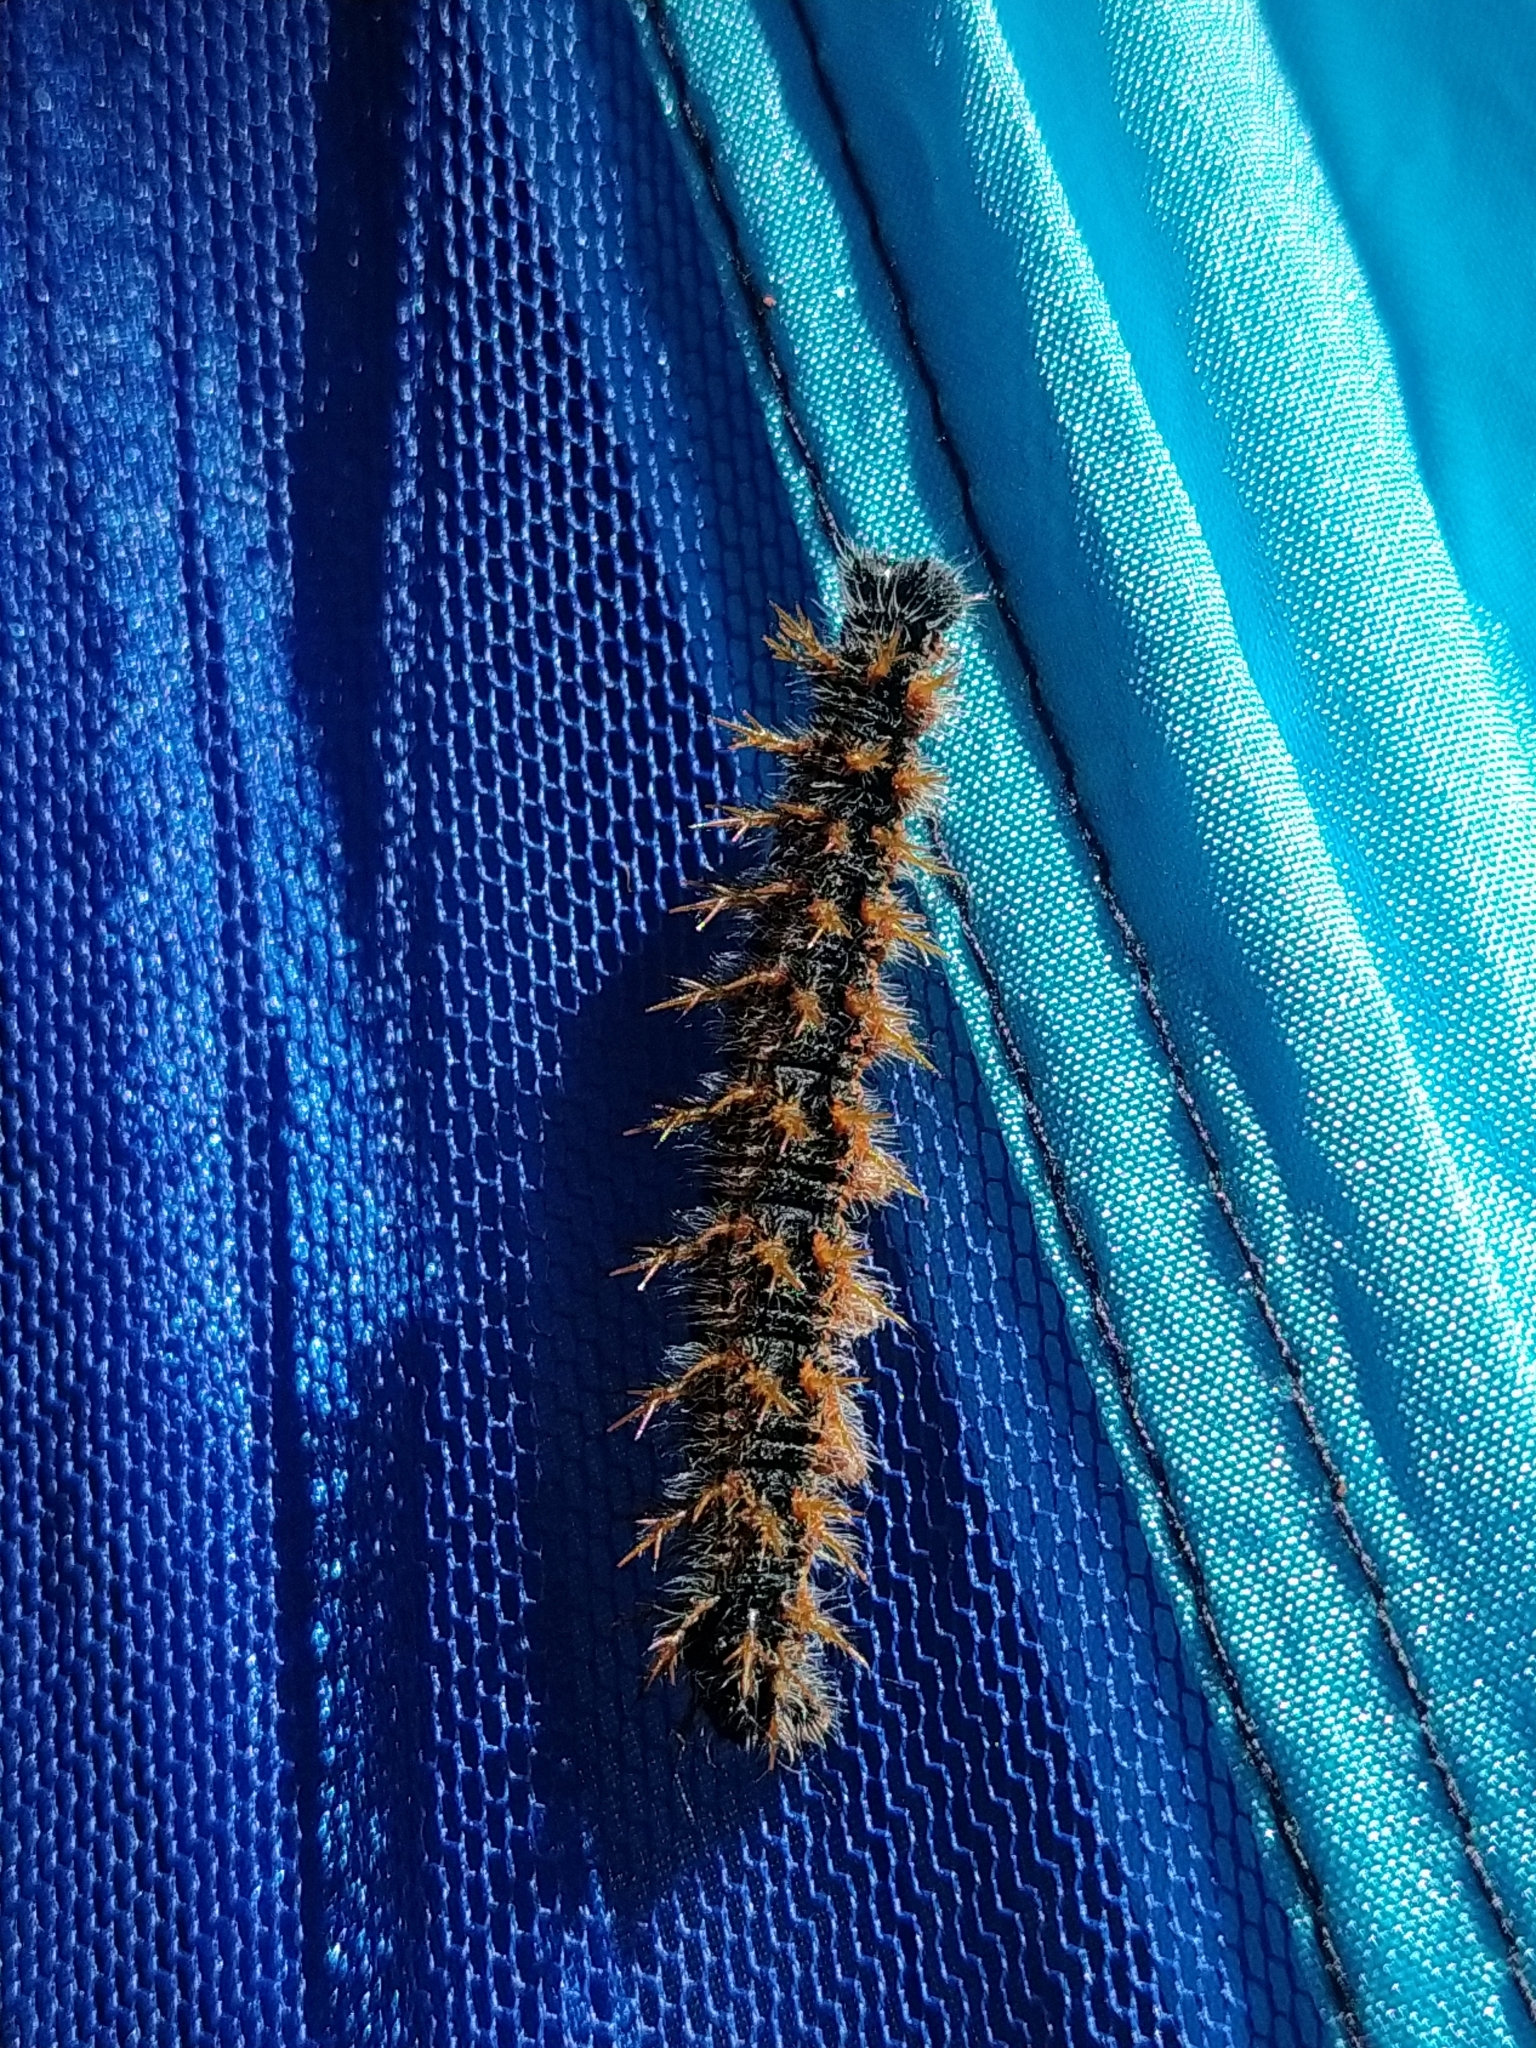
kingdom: Animalia
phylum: Arthropoda
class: Insecta
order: Lepidoptera
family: Nymphalidae
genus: Nymphalis
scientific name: Nymphalis polychloros
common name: Large tortoiseshell
